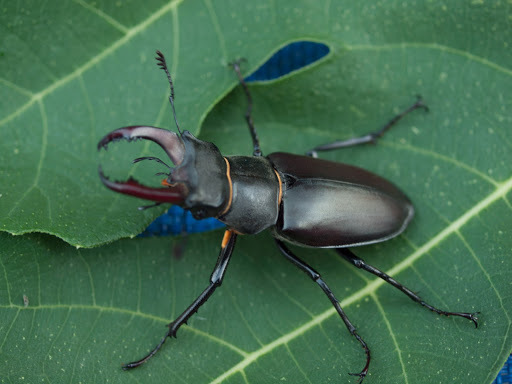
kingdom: Animalia
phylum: Arthropoda
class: Insecta
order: Coleoptera
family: Lucanidae
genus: Lucanus
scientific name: Lucanus cervus
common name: Stag beetle
